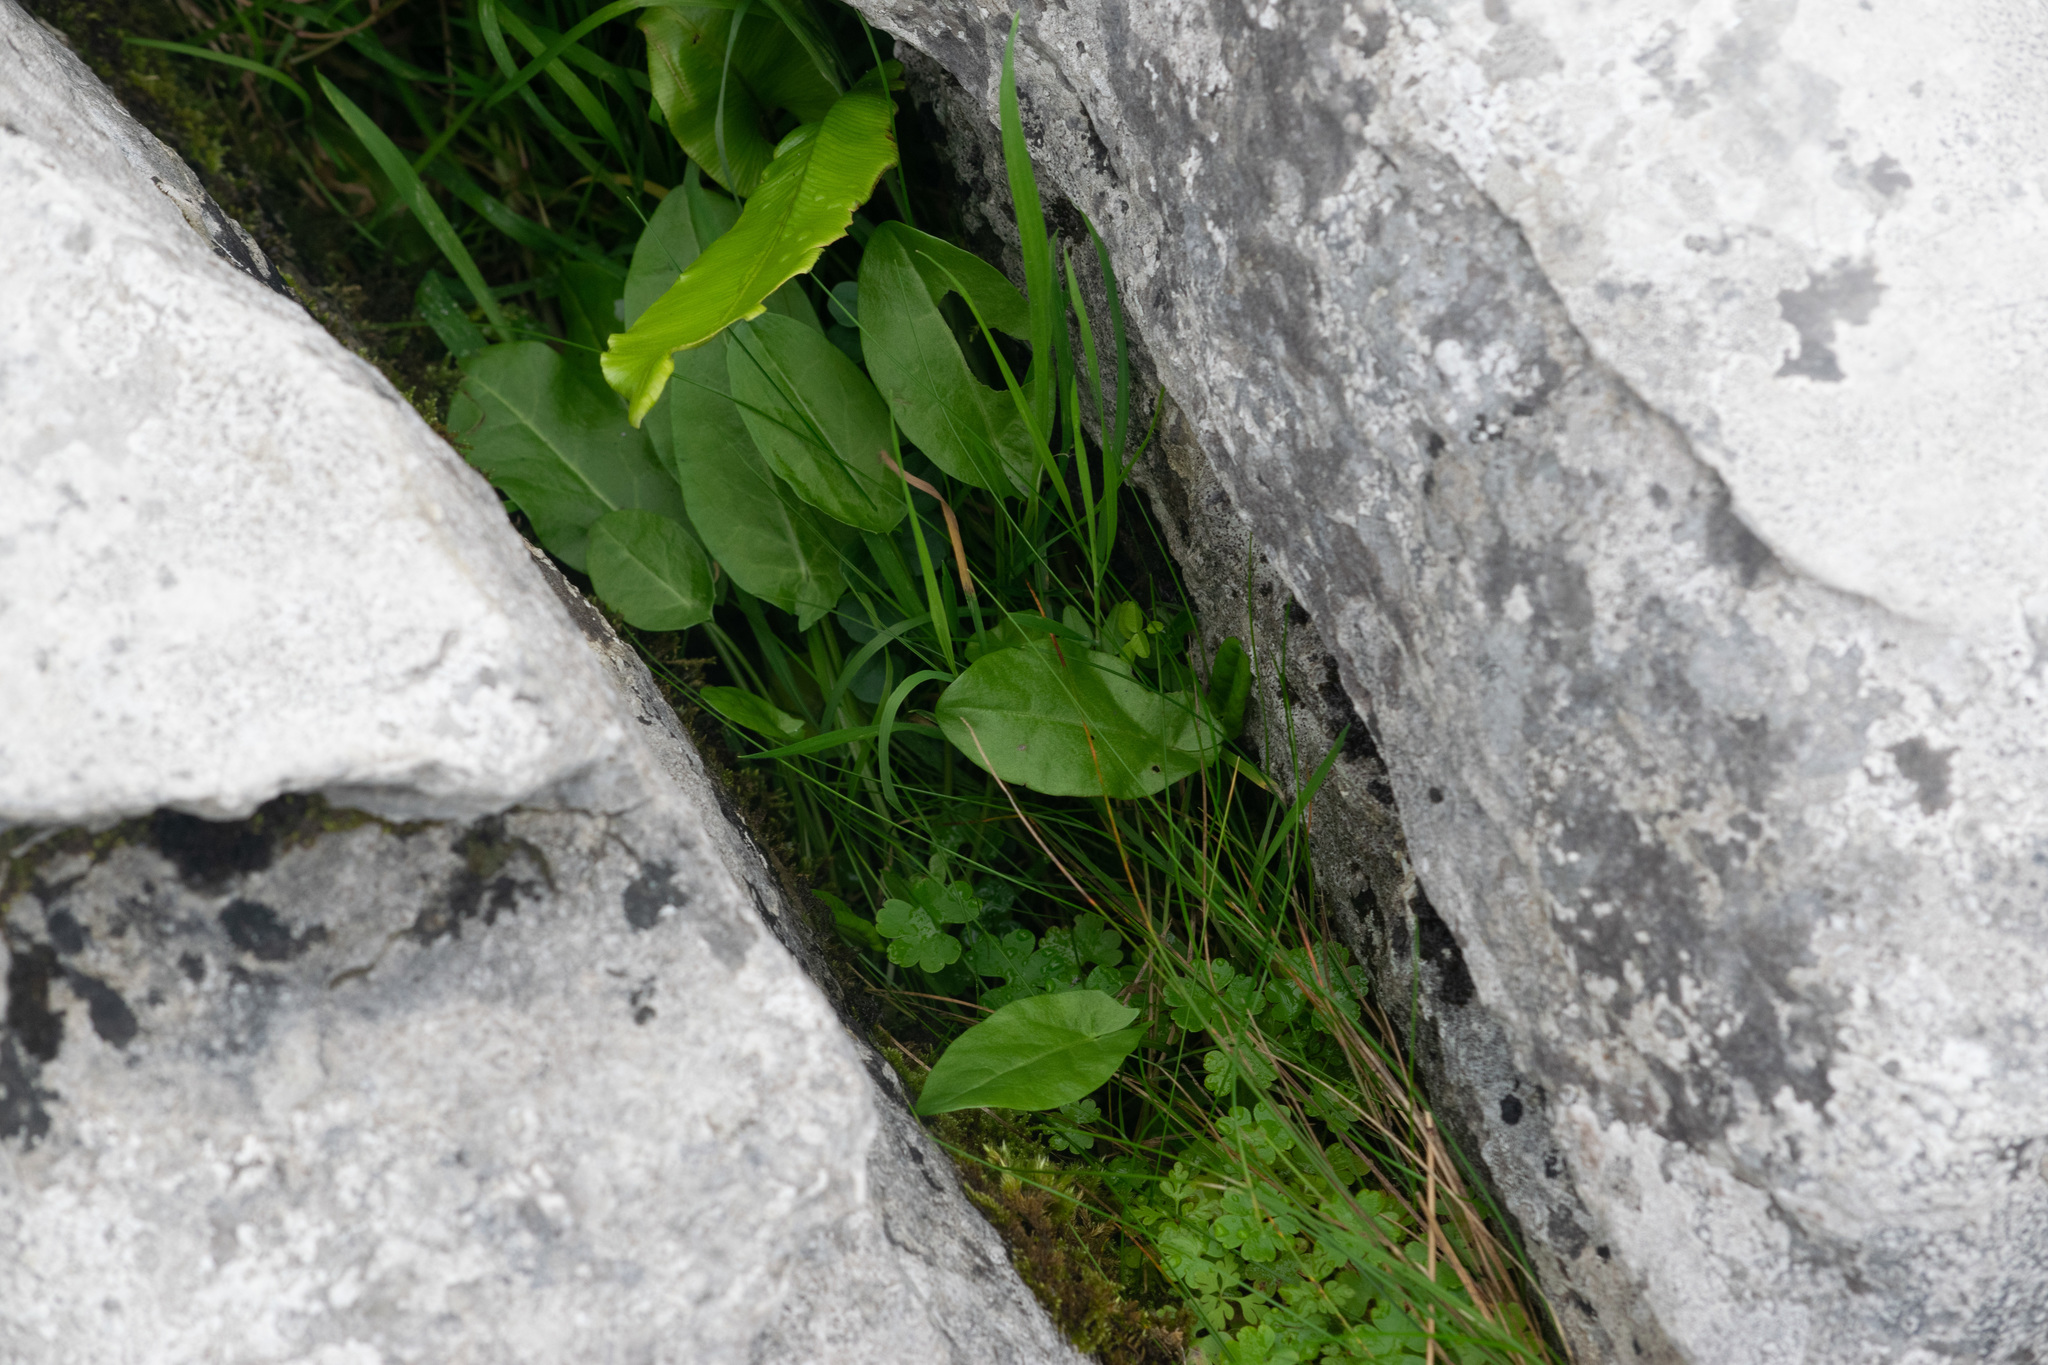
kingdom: Plantae
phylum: Tracheophyta
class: Magnoliopsida
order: Caryophyllales
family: Polygonaceae
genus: Rumex
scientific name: Rumex acetosa
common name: Garden sorrel
